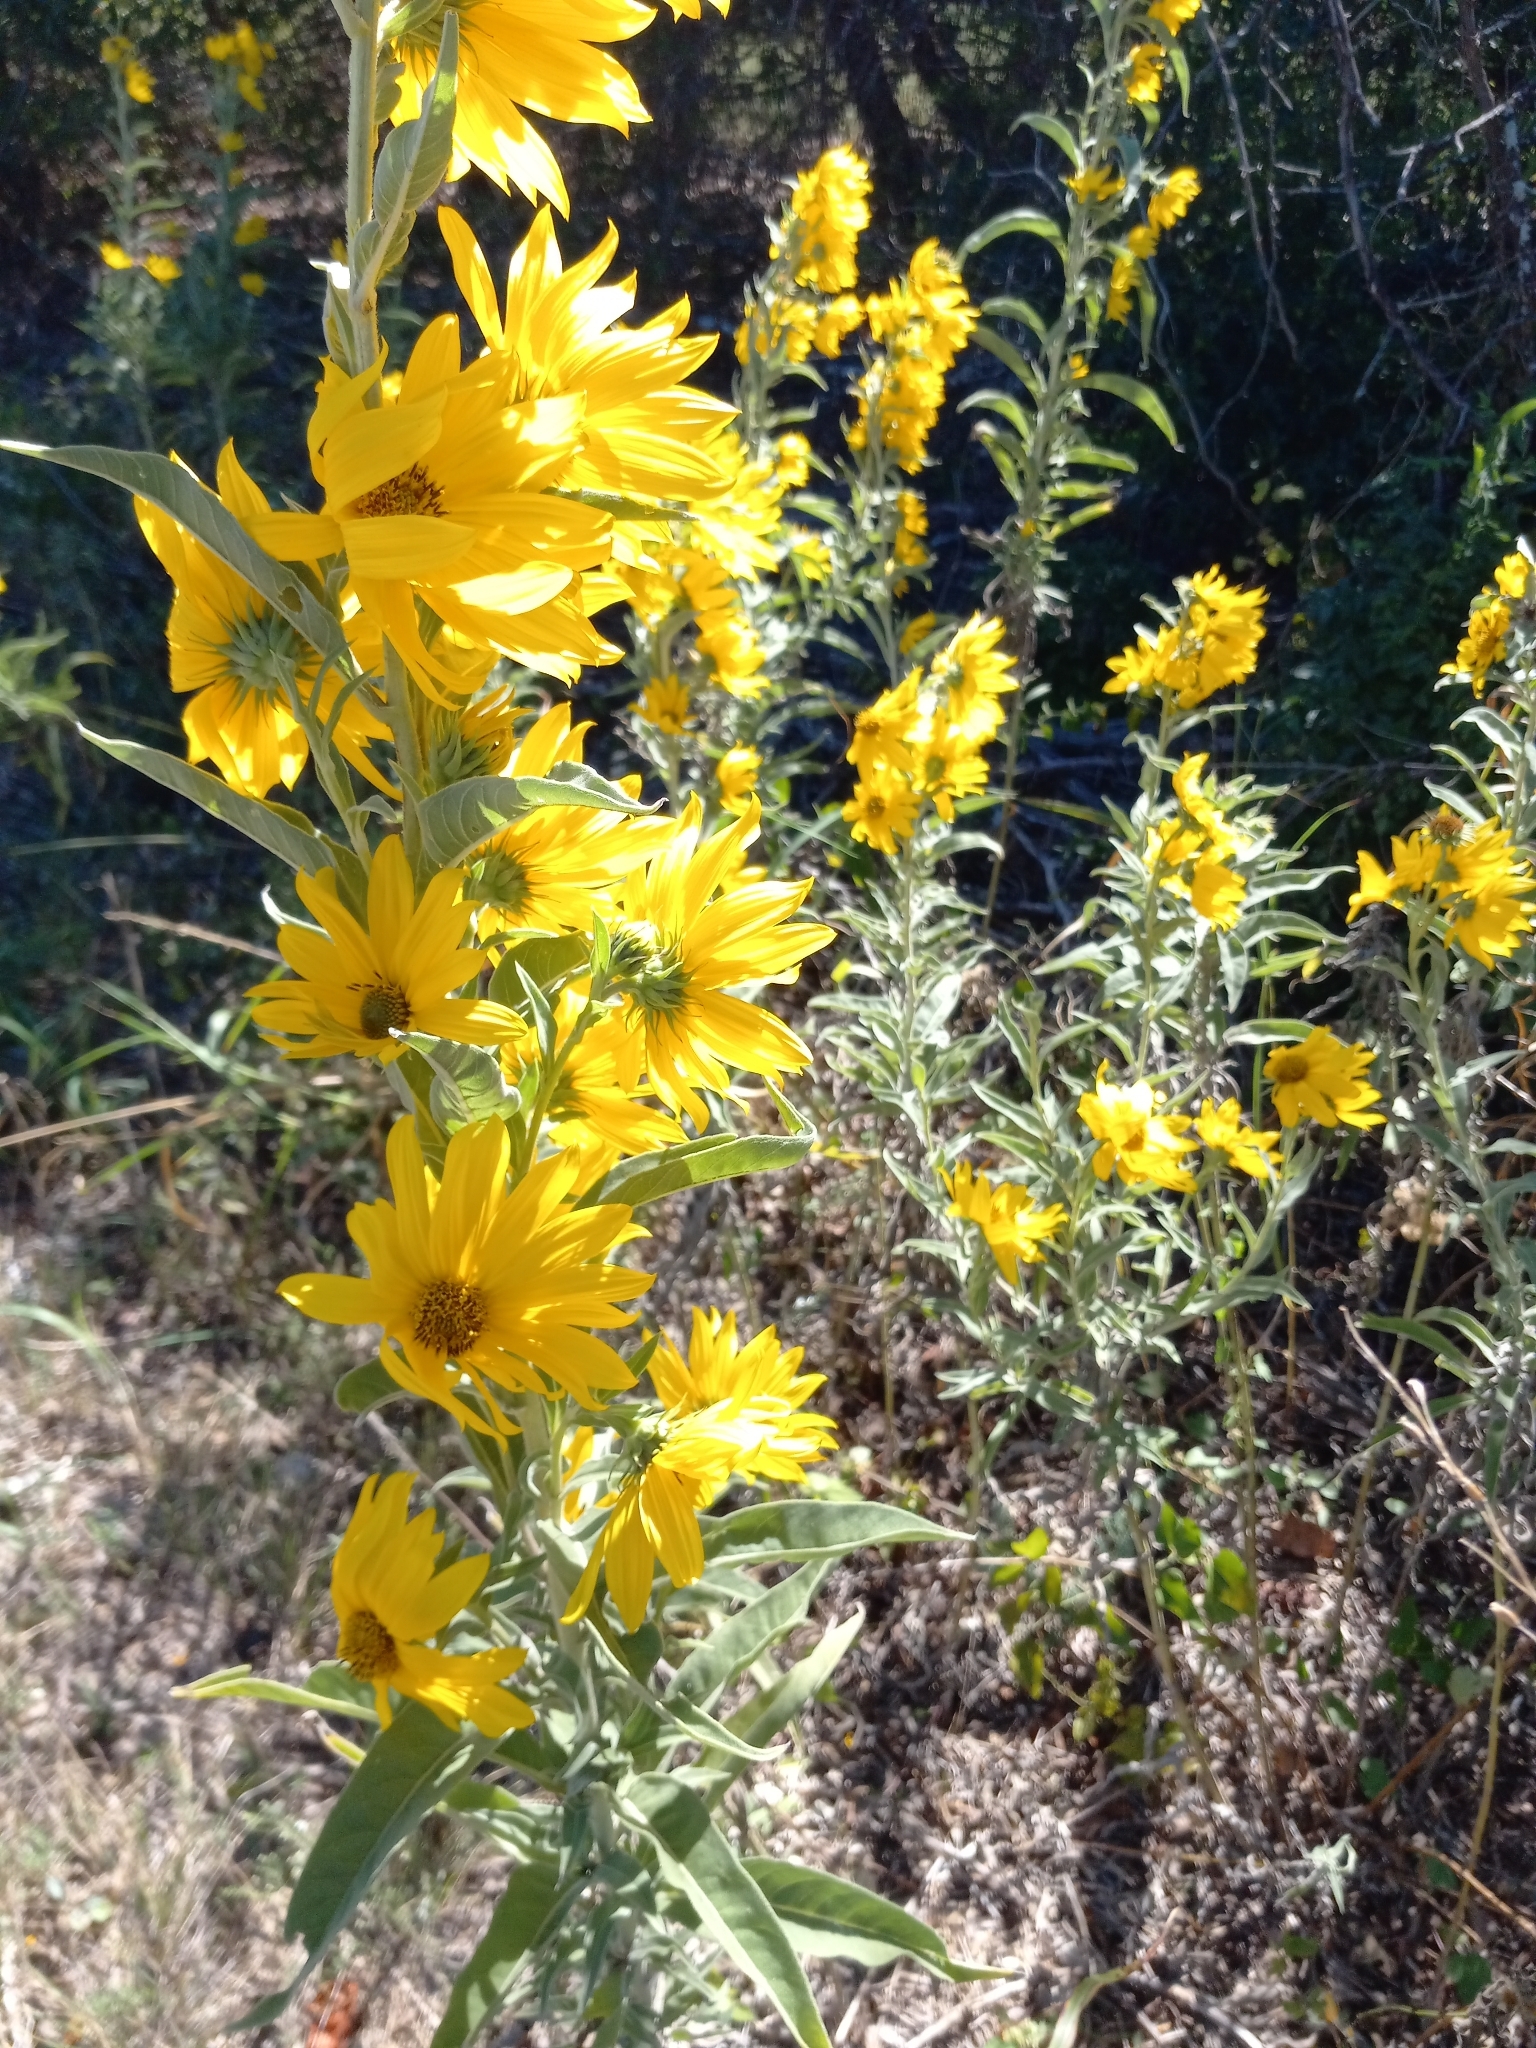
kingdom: Plantae
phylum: Tracheophyta
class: Magnoliopsida
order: Asterales
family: Asteraceae
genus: Helianthus
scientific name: Helianthus maximiliani
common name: Maximilian's sunflower
